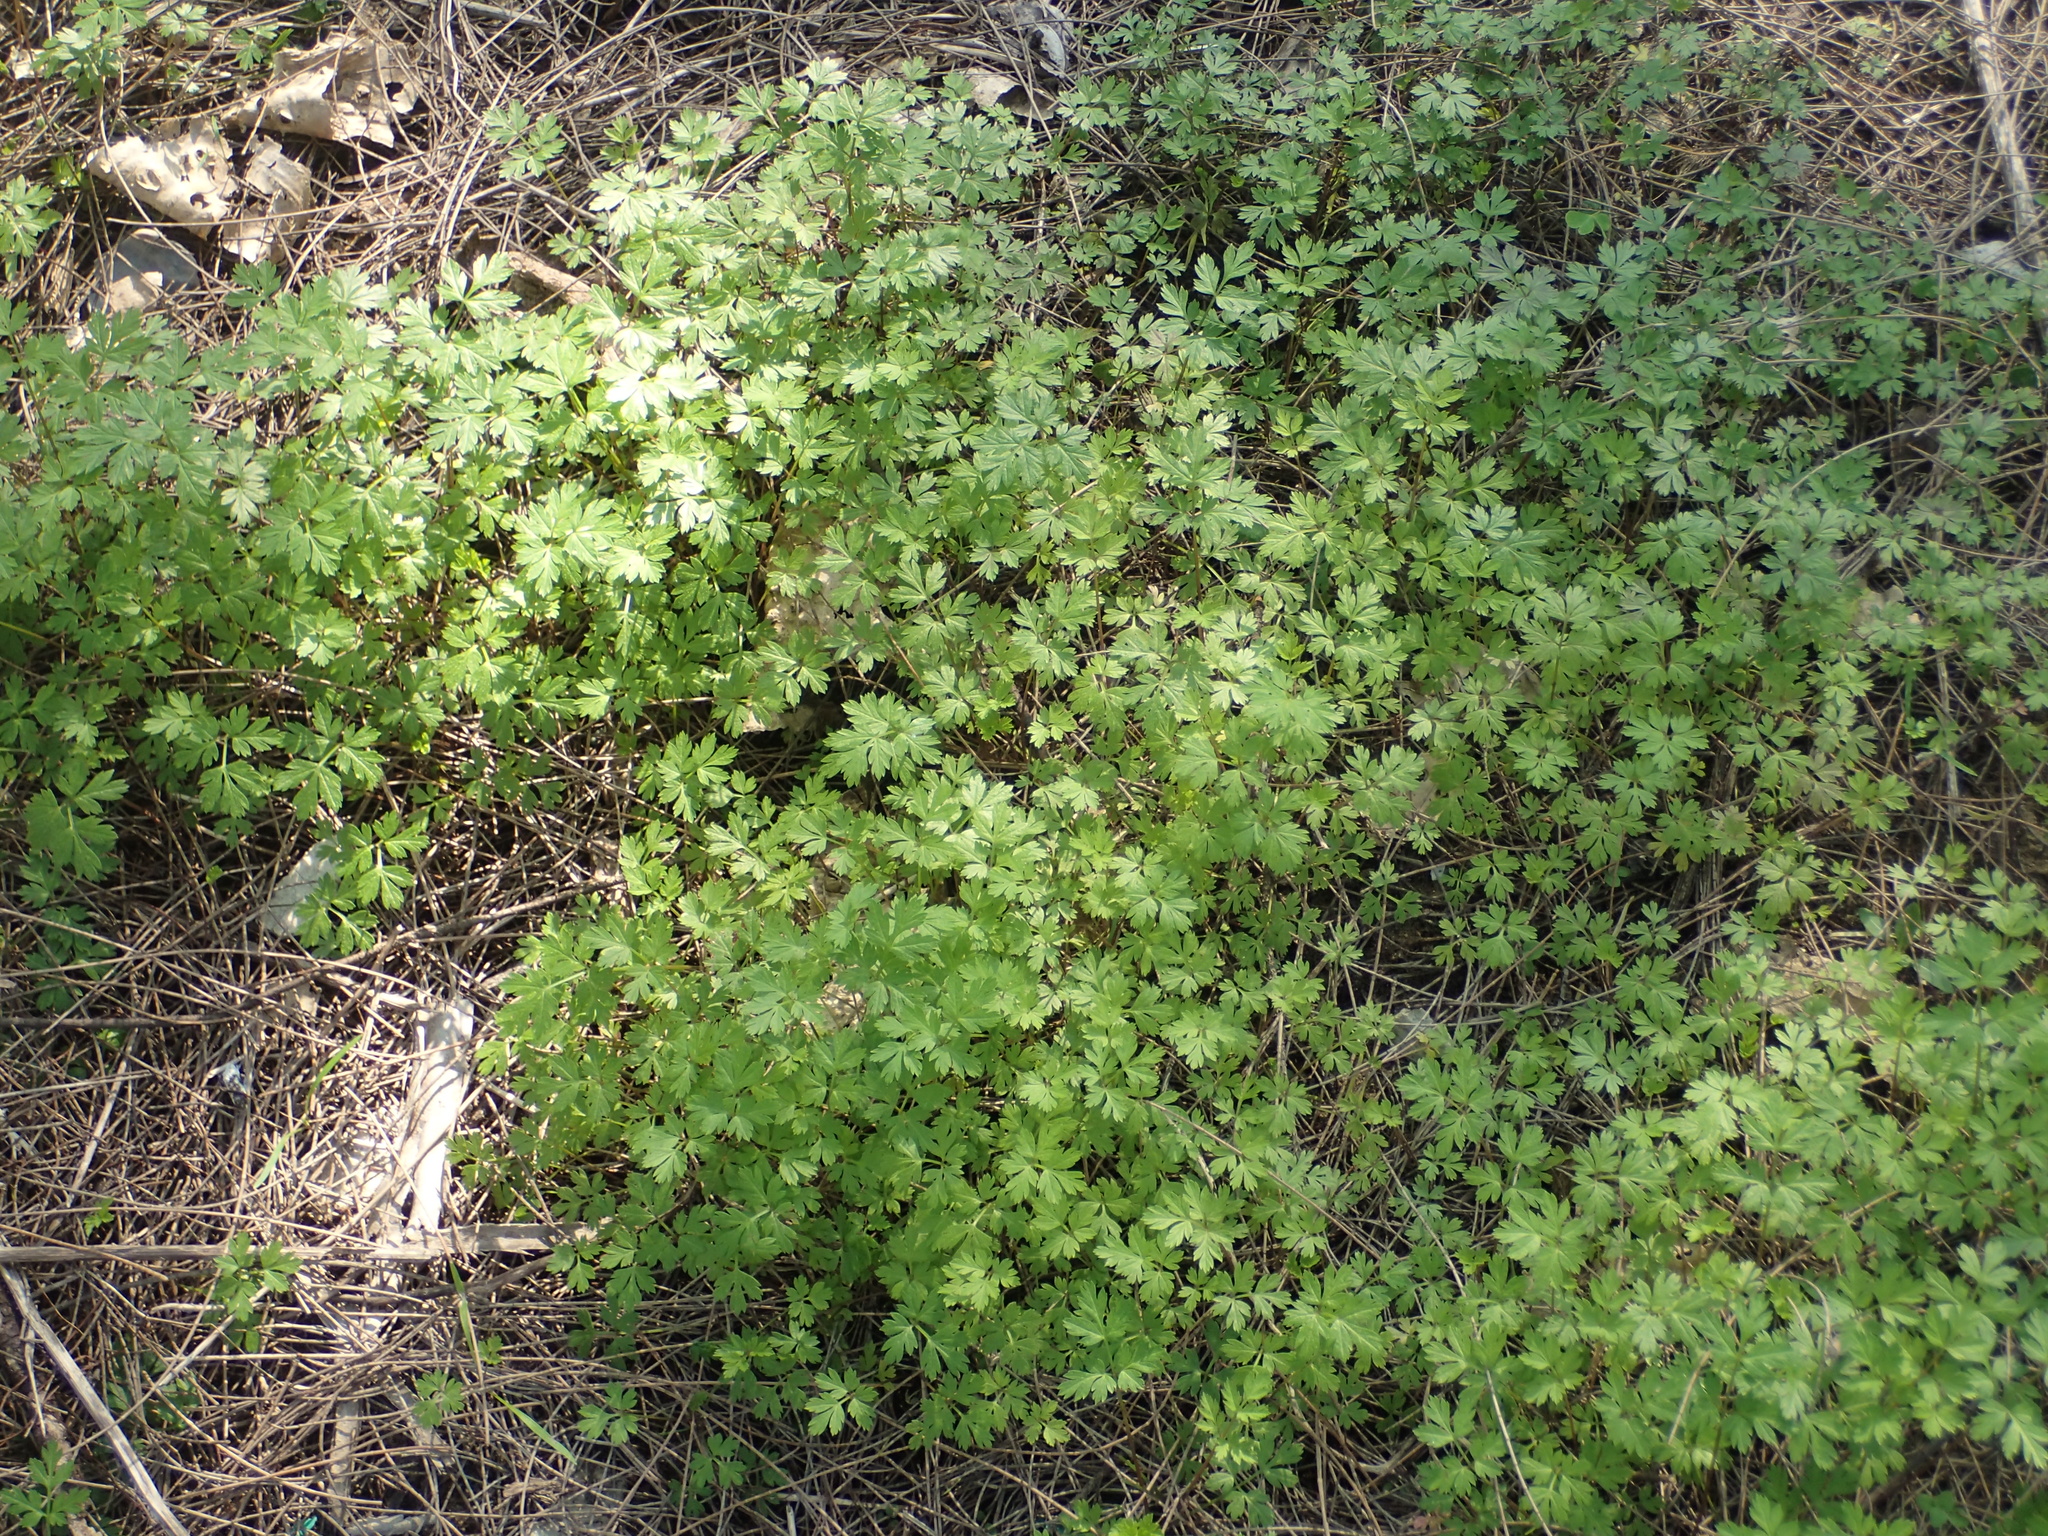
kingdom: Plantae
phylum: Tracheophyta
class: Magnoliopsida
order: Apiales
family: Apiaceae
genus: Torilis
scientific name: Torilis japonica
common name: Upright hedge-parsley
